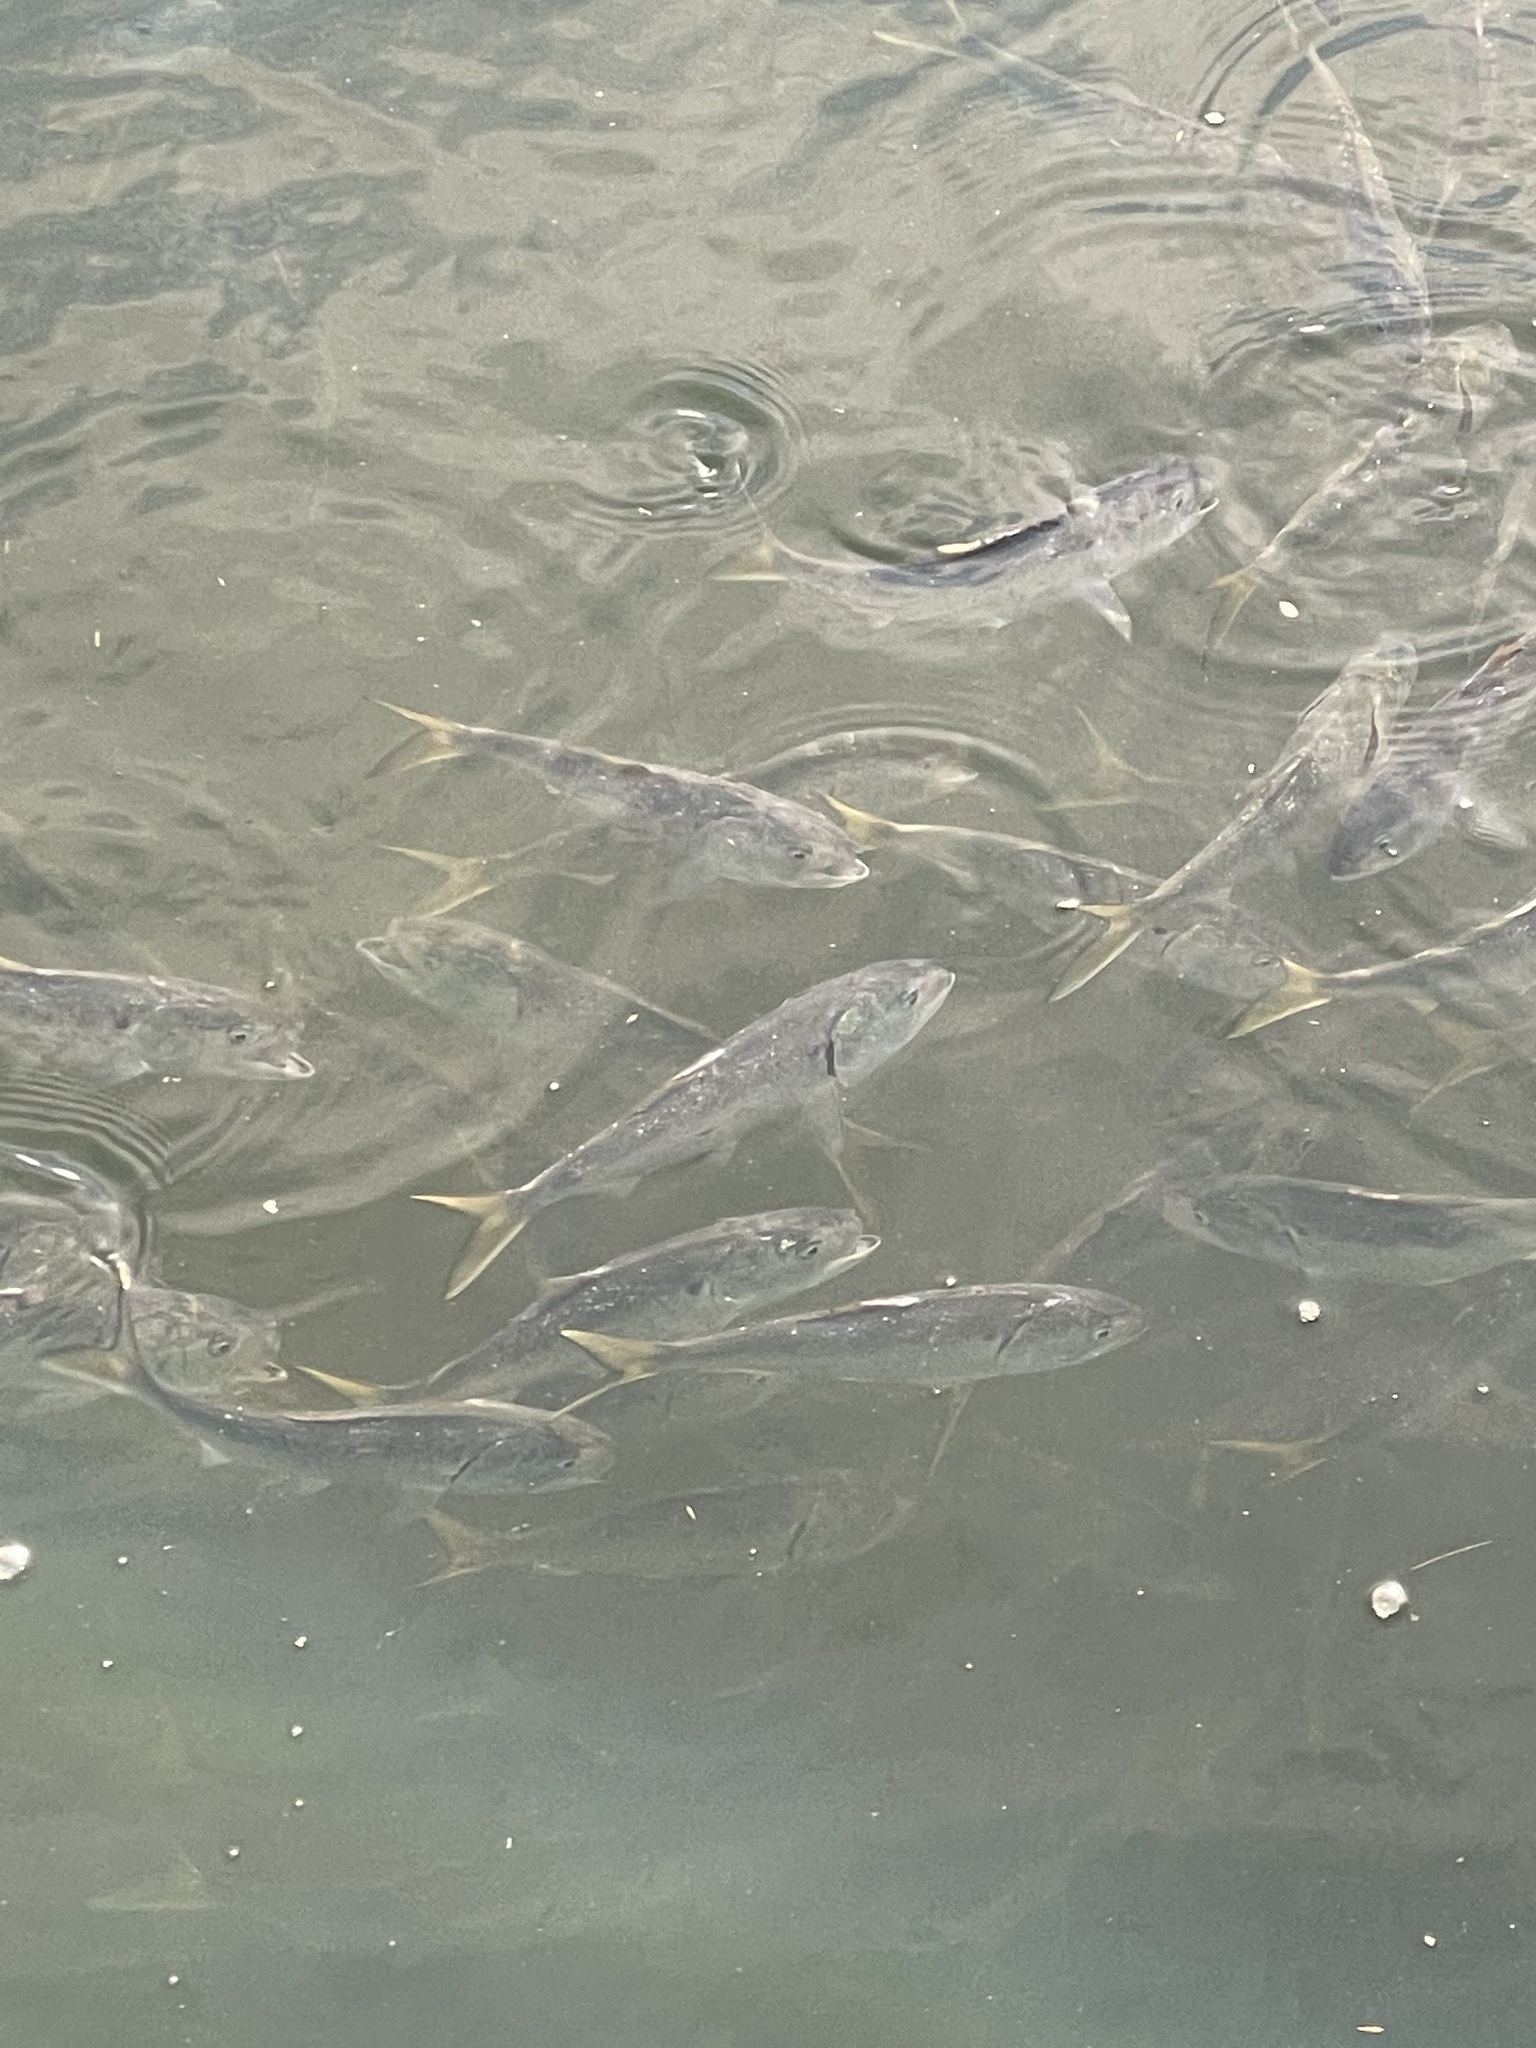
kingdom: Animalia
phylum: Chordata
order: Clupeiformes
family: Clupeidae
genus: Brevoortia
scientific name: Brevoortia tyrannus
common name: Atlantic menhaden
